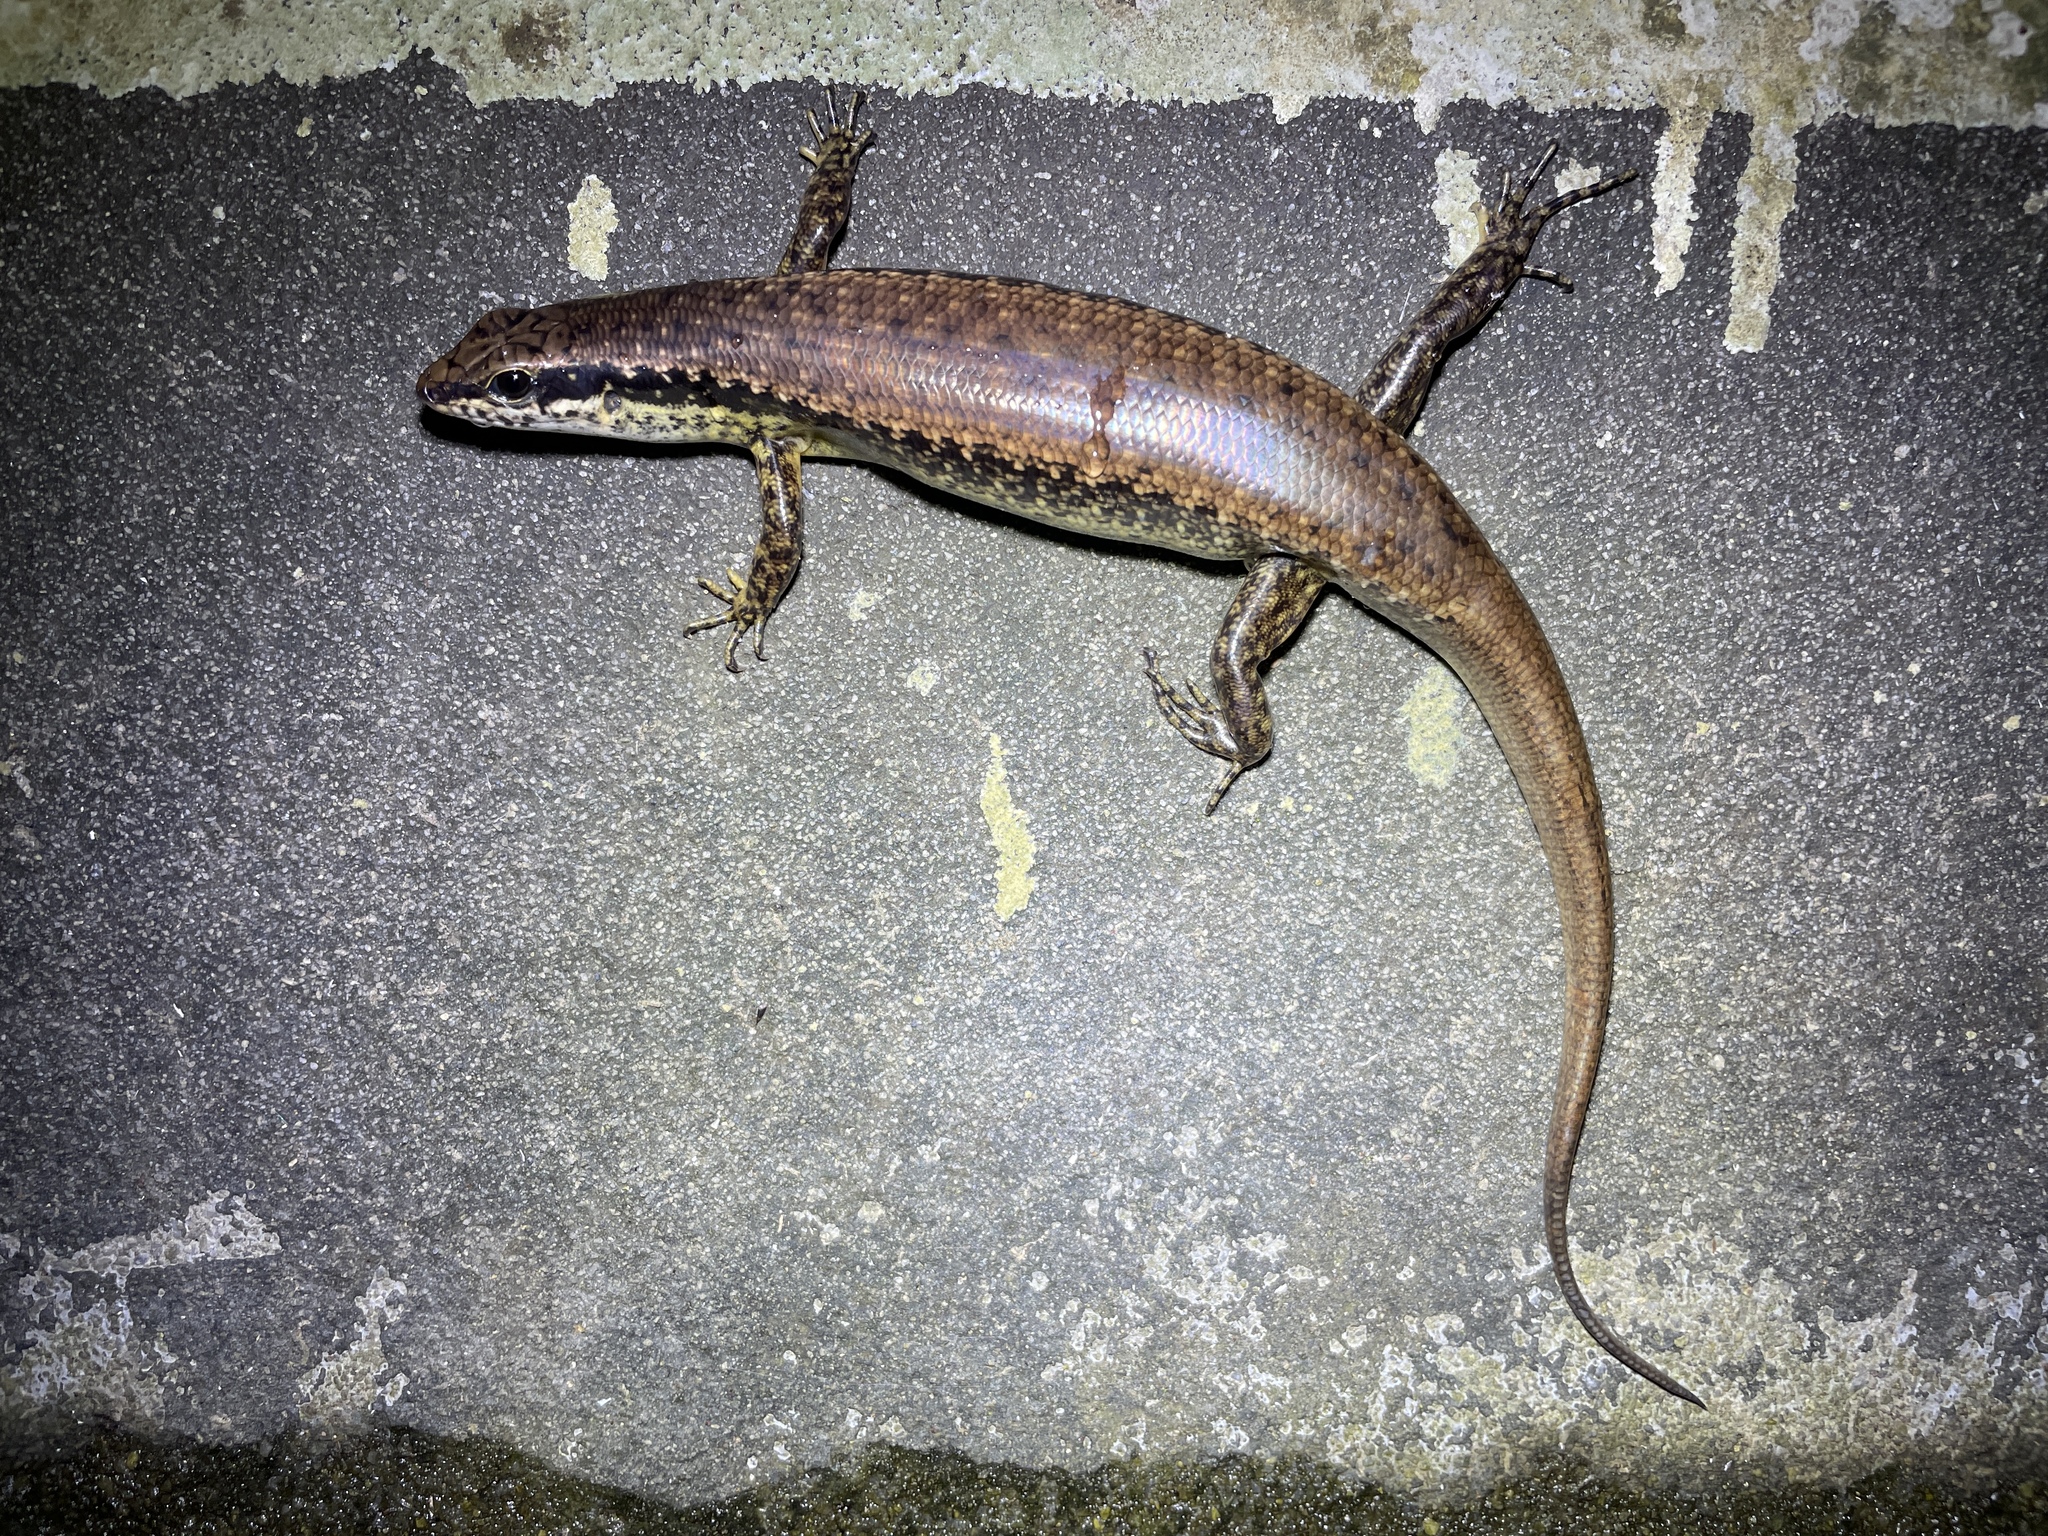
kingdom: Animalia
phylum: Chordata
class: Squamata
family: Scincidae
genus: Sphenomorphus
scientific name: Sphenomorphus incognitus
